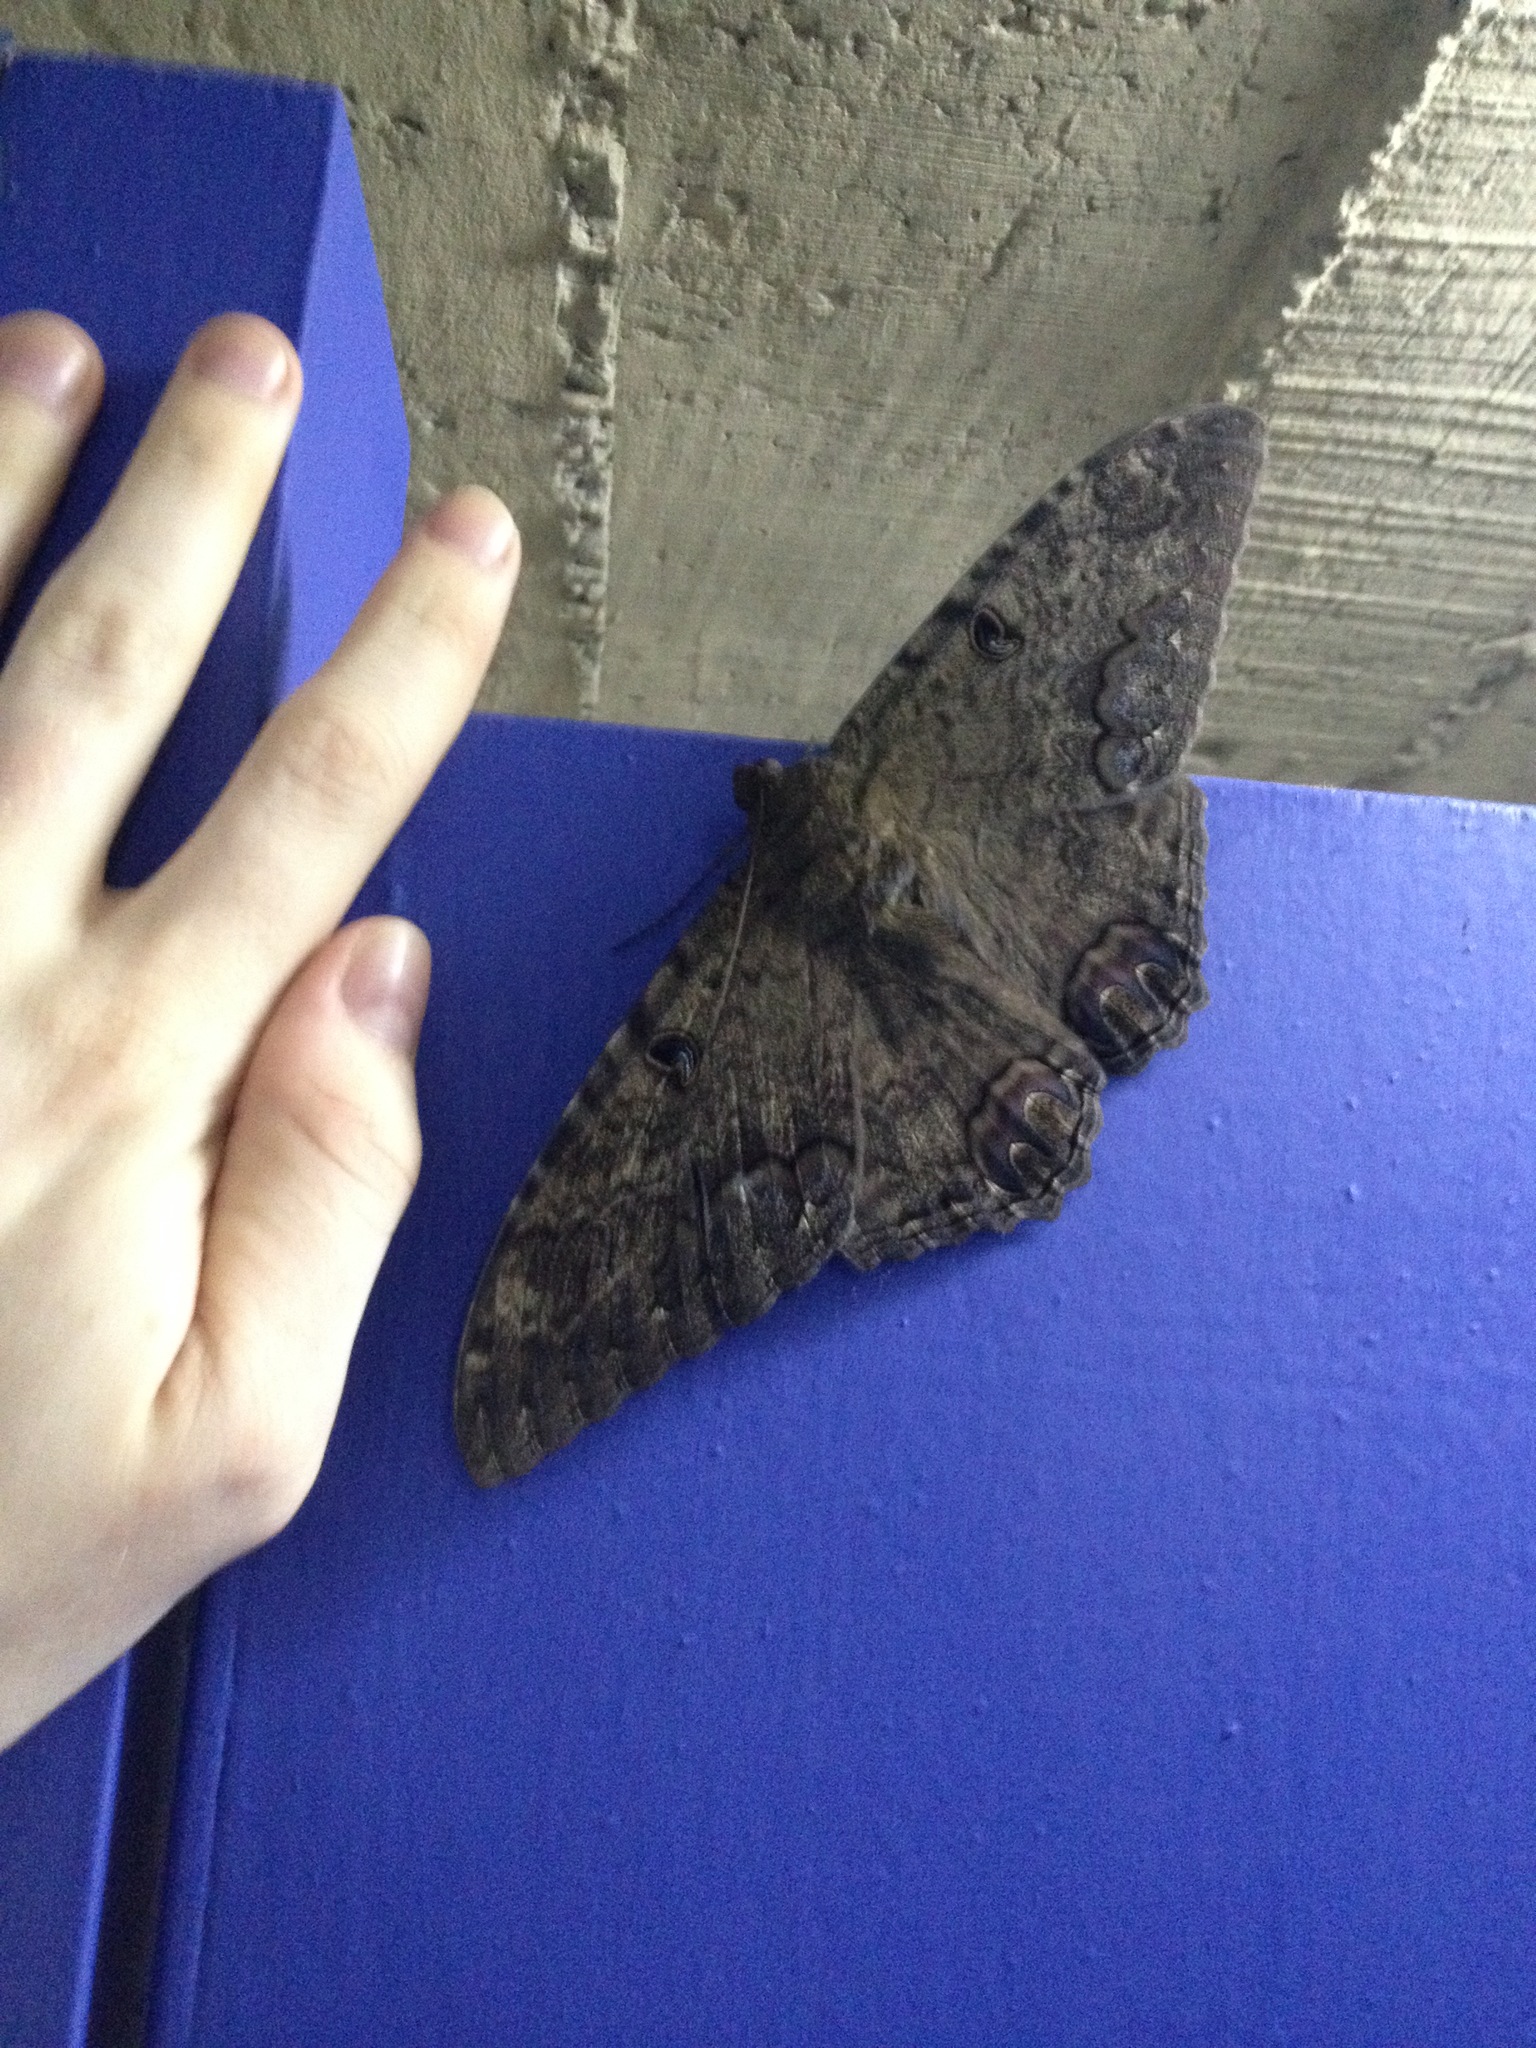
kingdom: Animalia
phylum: Arthropoda
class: Insecta
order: Lepidoptera
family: Erebidae
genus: Ascalapha
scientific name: Ascalapha odorata
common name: Black witch
